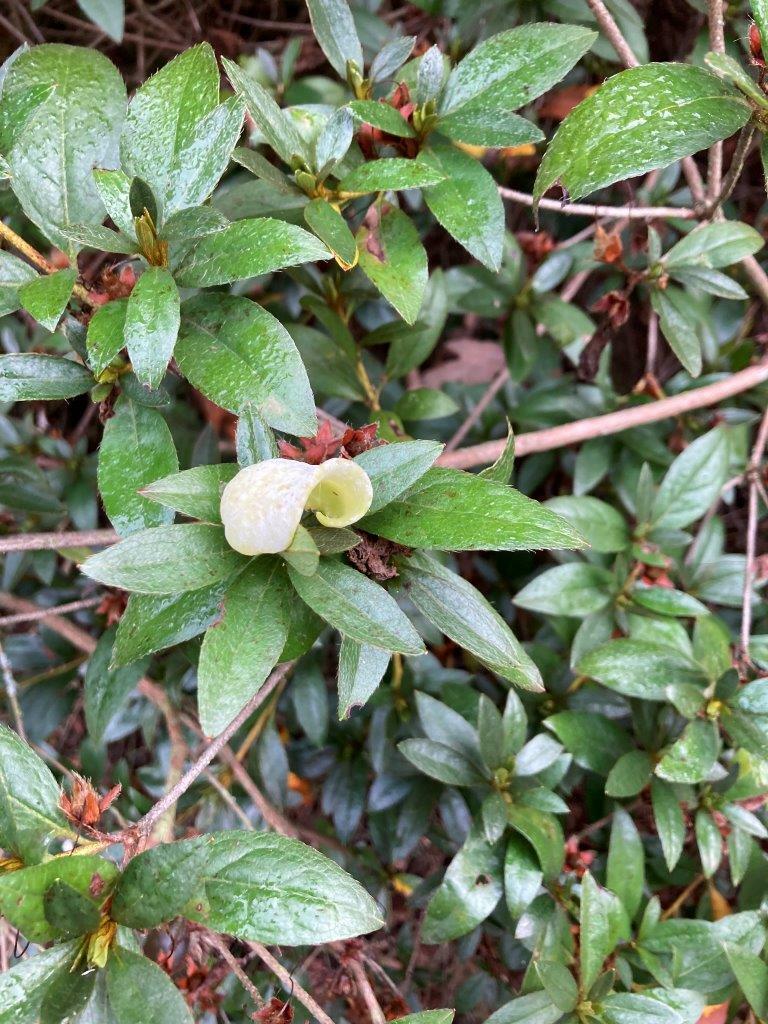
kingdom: Fungi
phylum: Basidiomycota
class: Exobasidiomycetes
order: Exobasidiales
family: Exobasidiaceae
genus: Exobasidium
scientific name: Exobasidium japonicum
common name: Azalea gall
